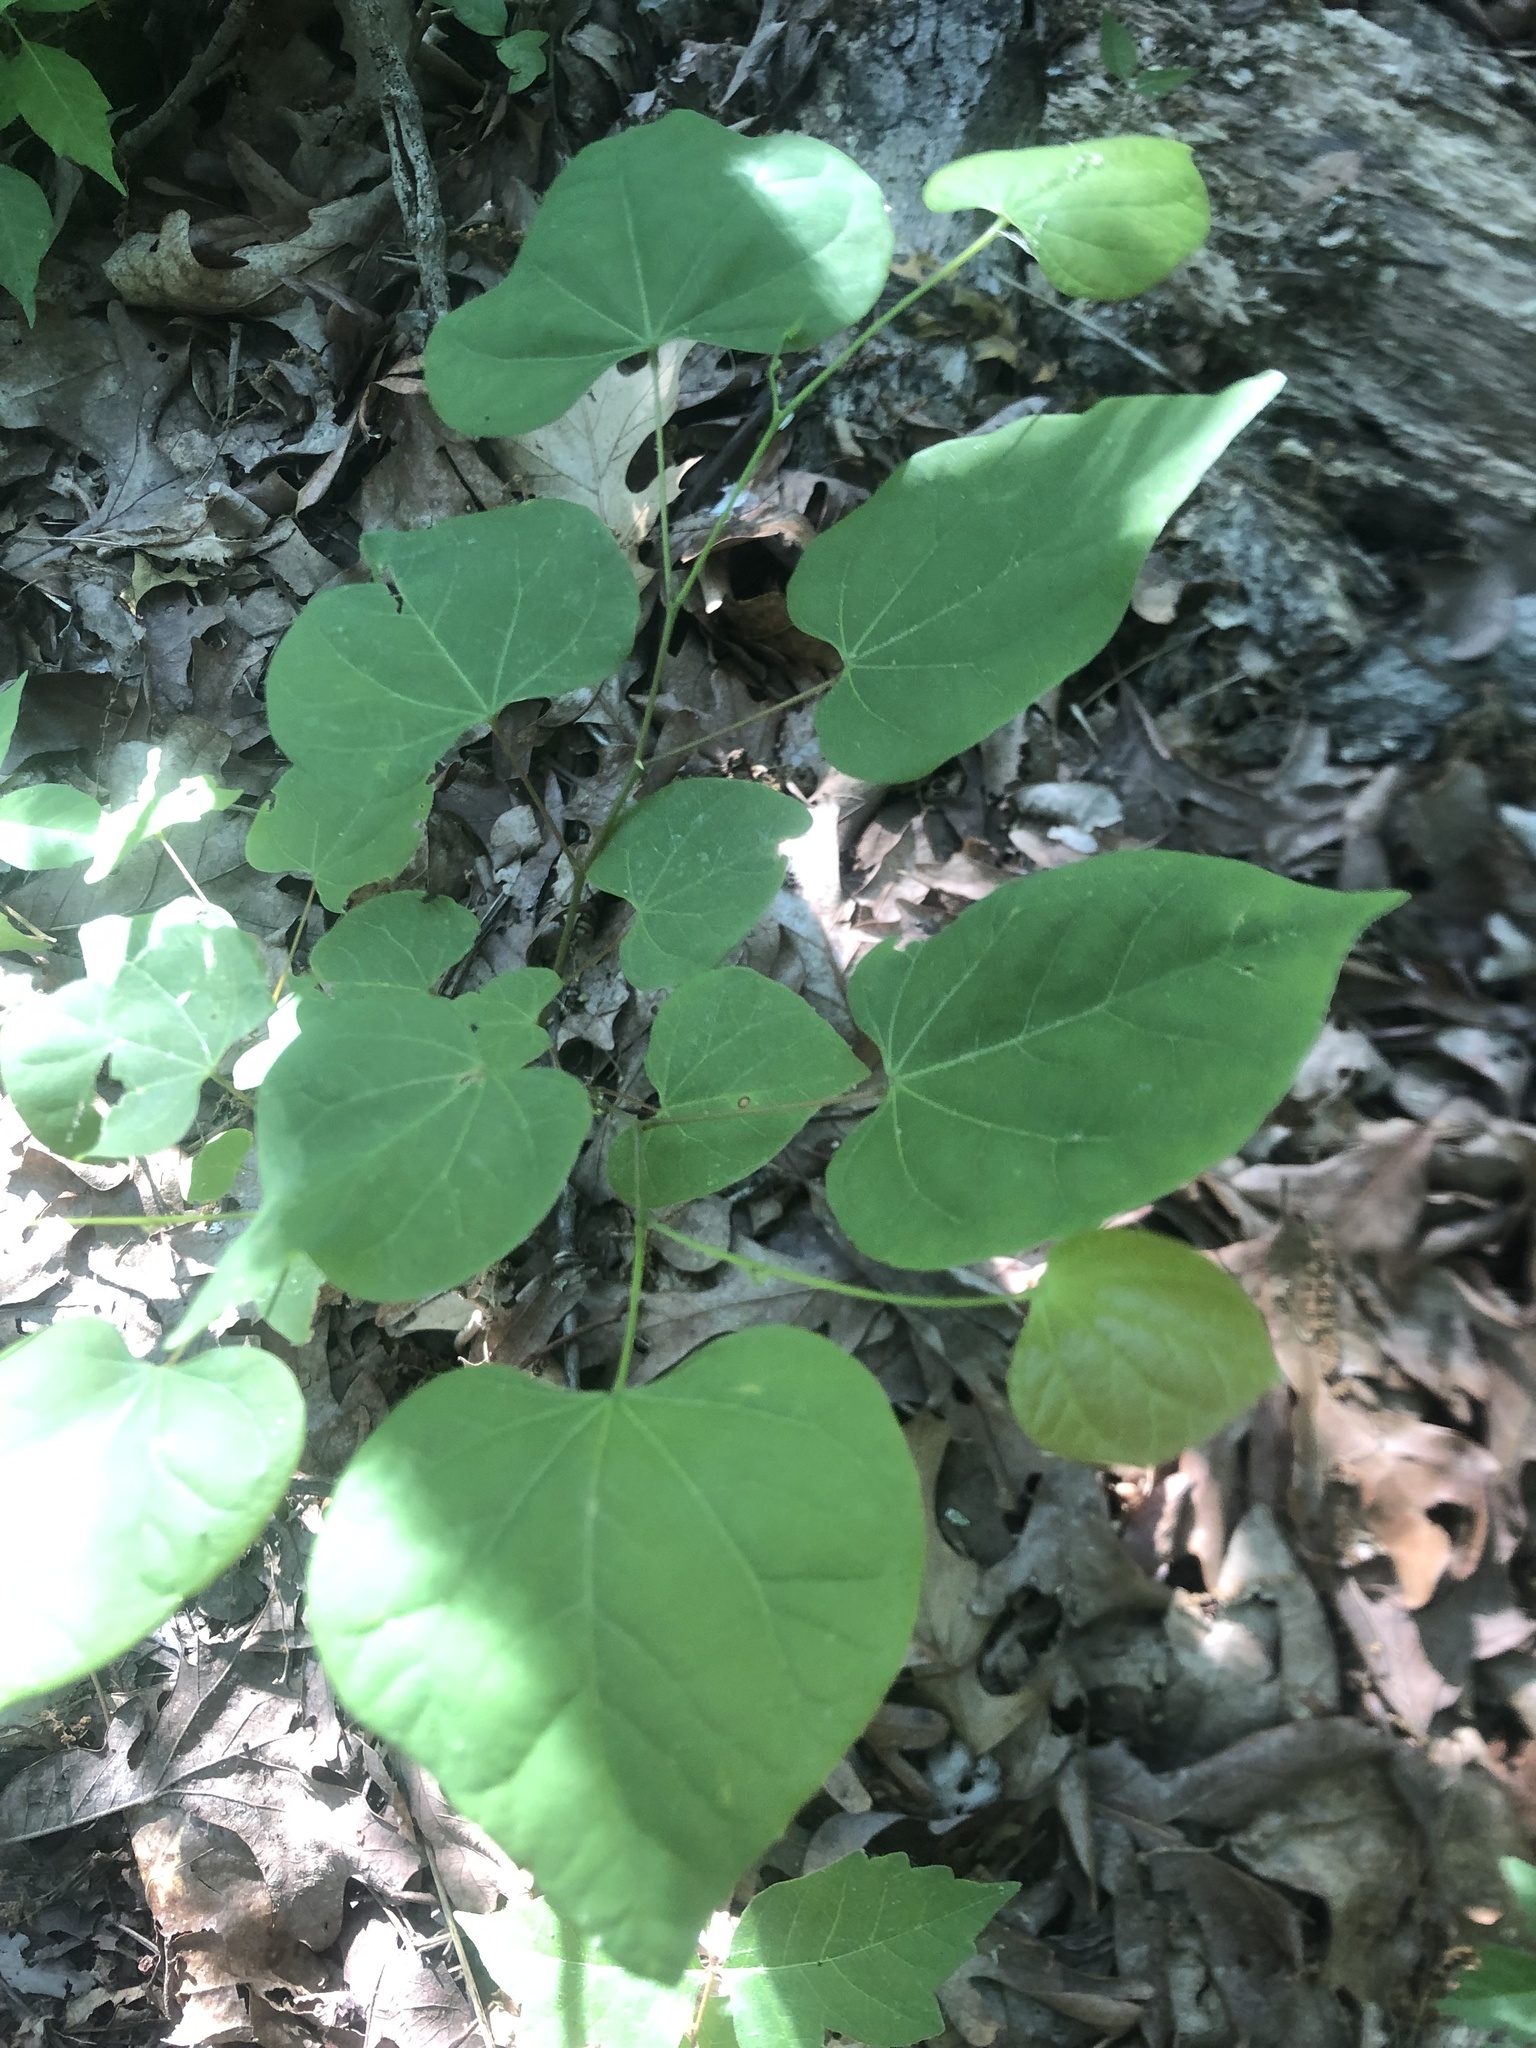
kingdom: Plantae
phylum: Tracheophyta
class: Magnoliopsida
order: Fabales
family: Fabaceae
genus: Cercis
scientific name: Cercis canadensis
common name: Eastern redbud
